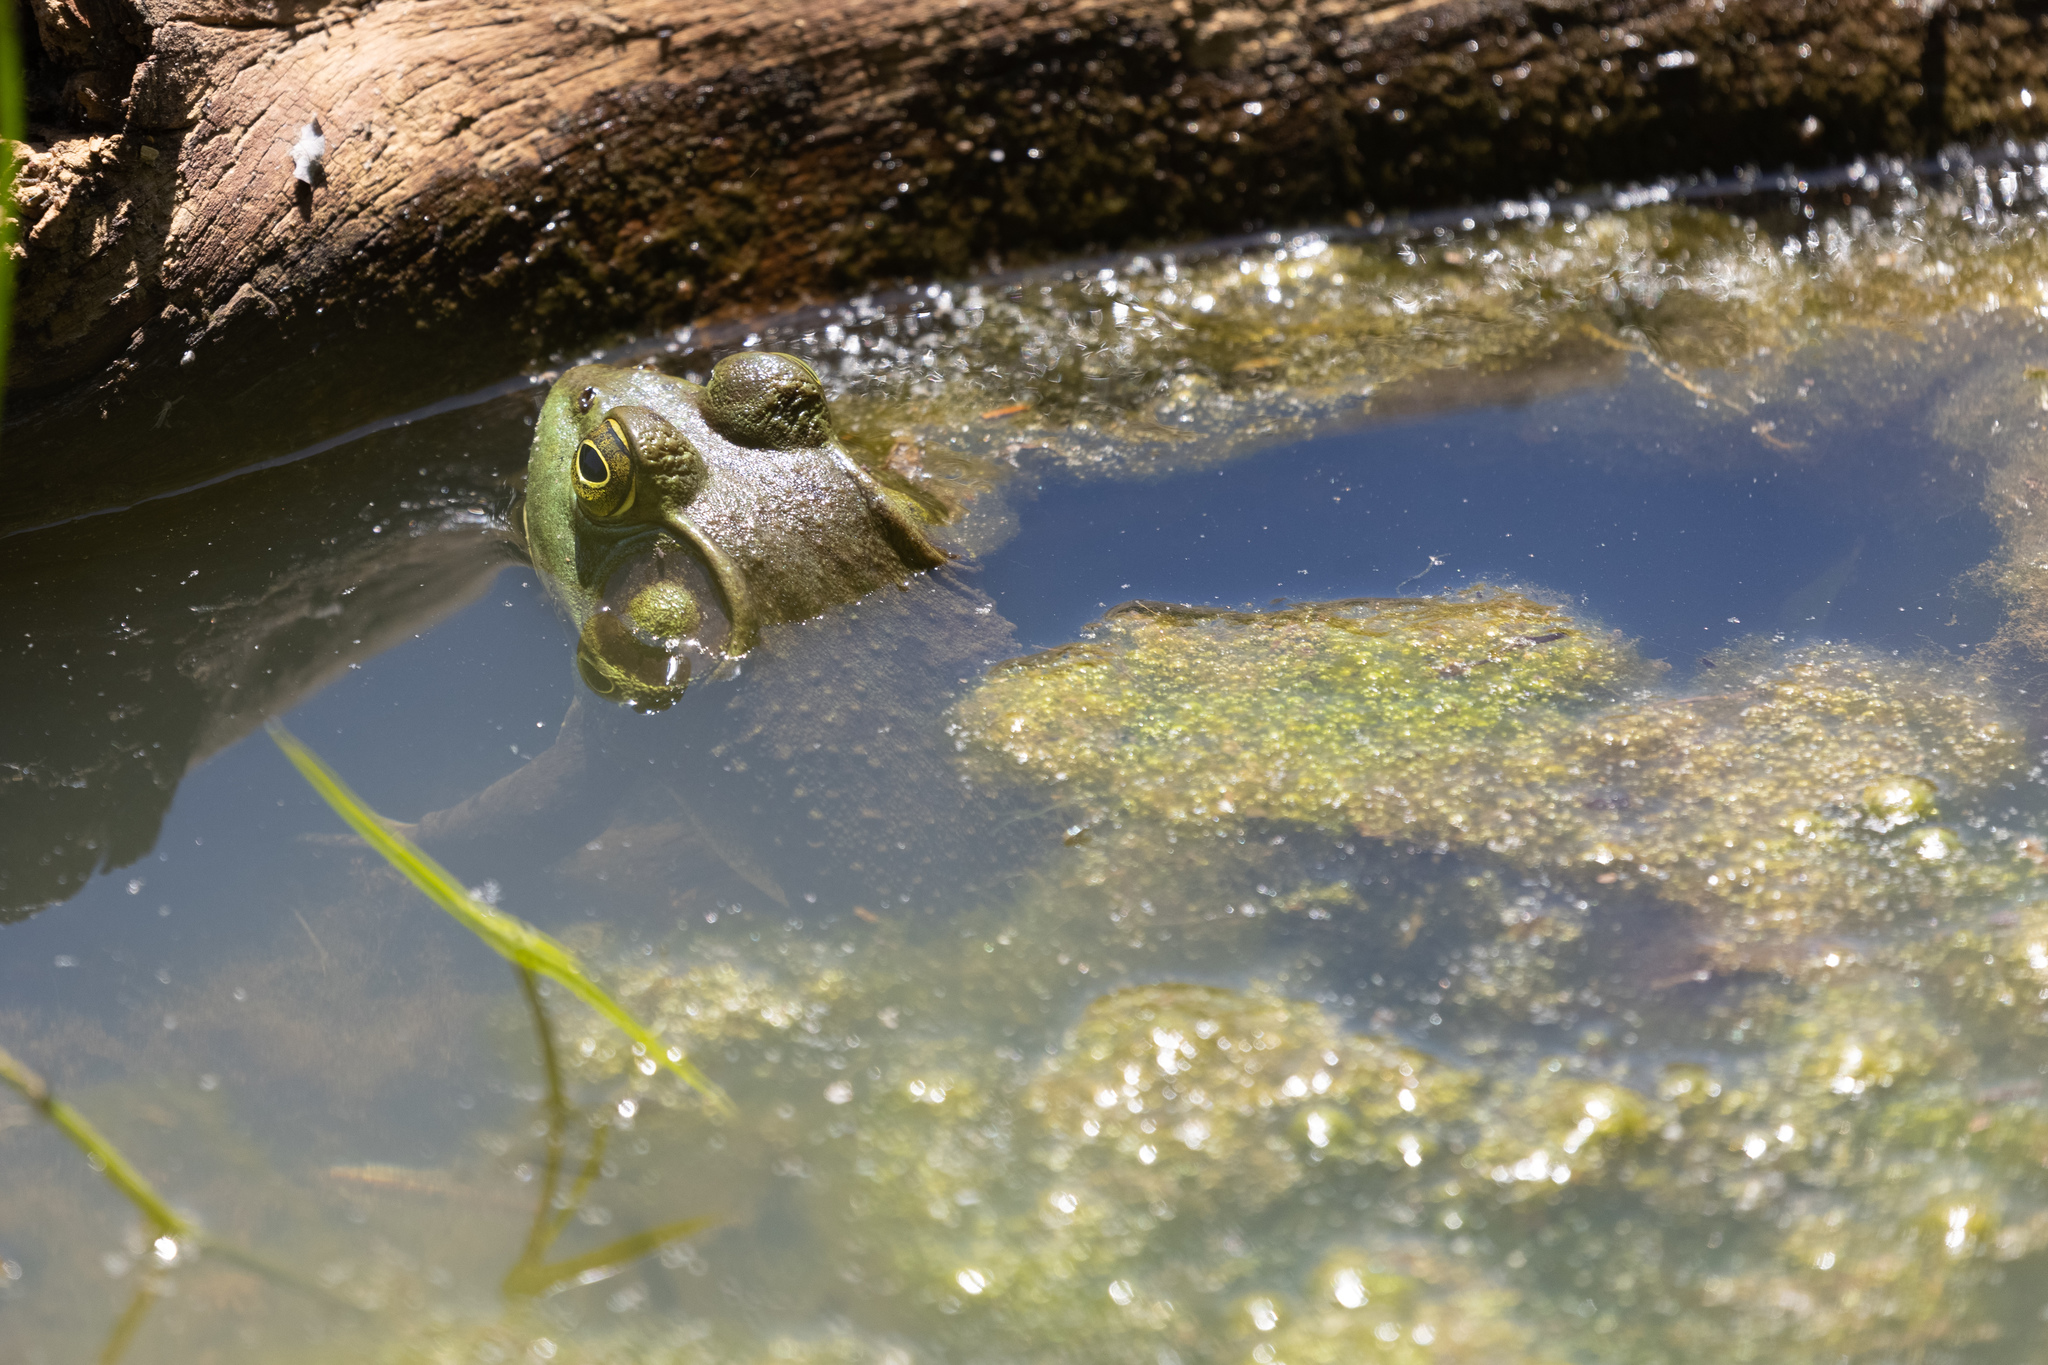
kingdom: Animalia
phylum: Chordata
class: Amphibia
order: Anura
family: Ranidae
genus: Lithobates
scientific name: Lithobates catesbeianus
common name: American bullfrog
